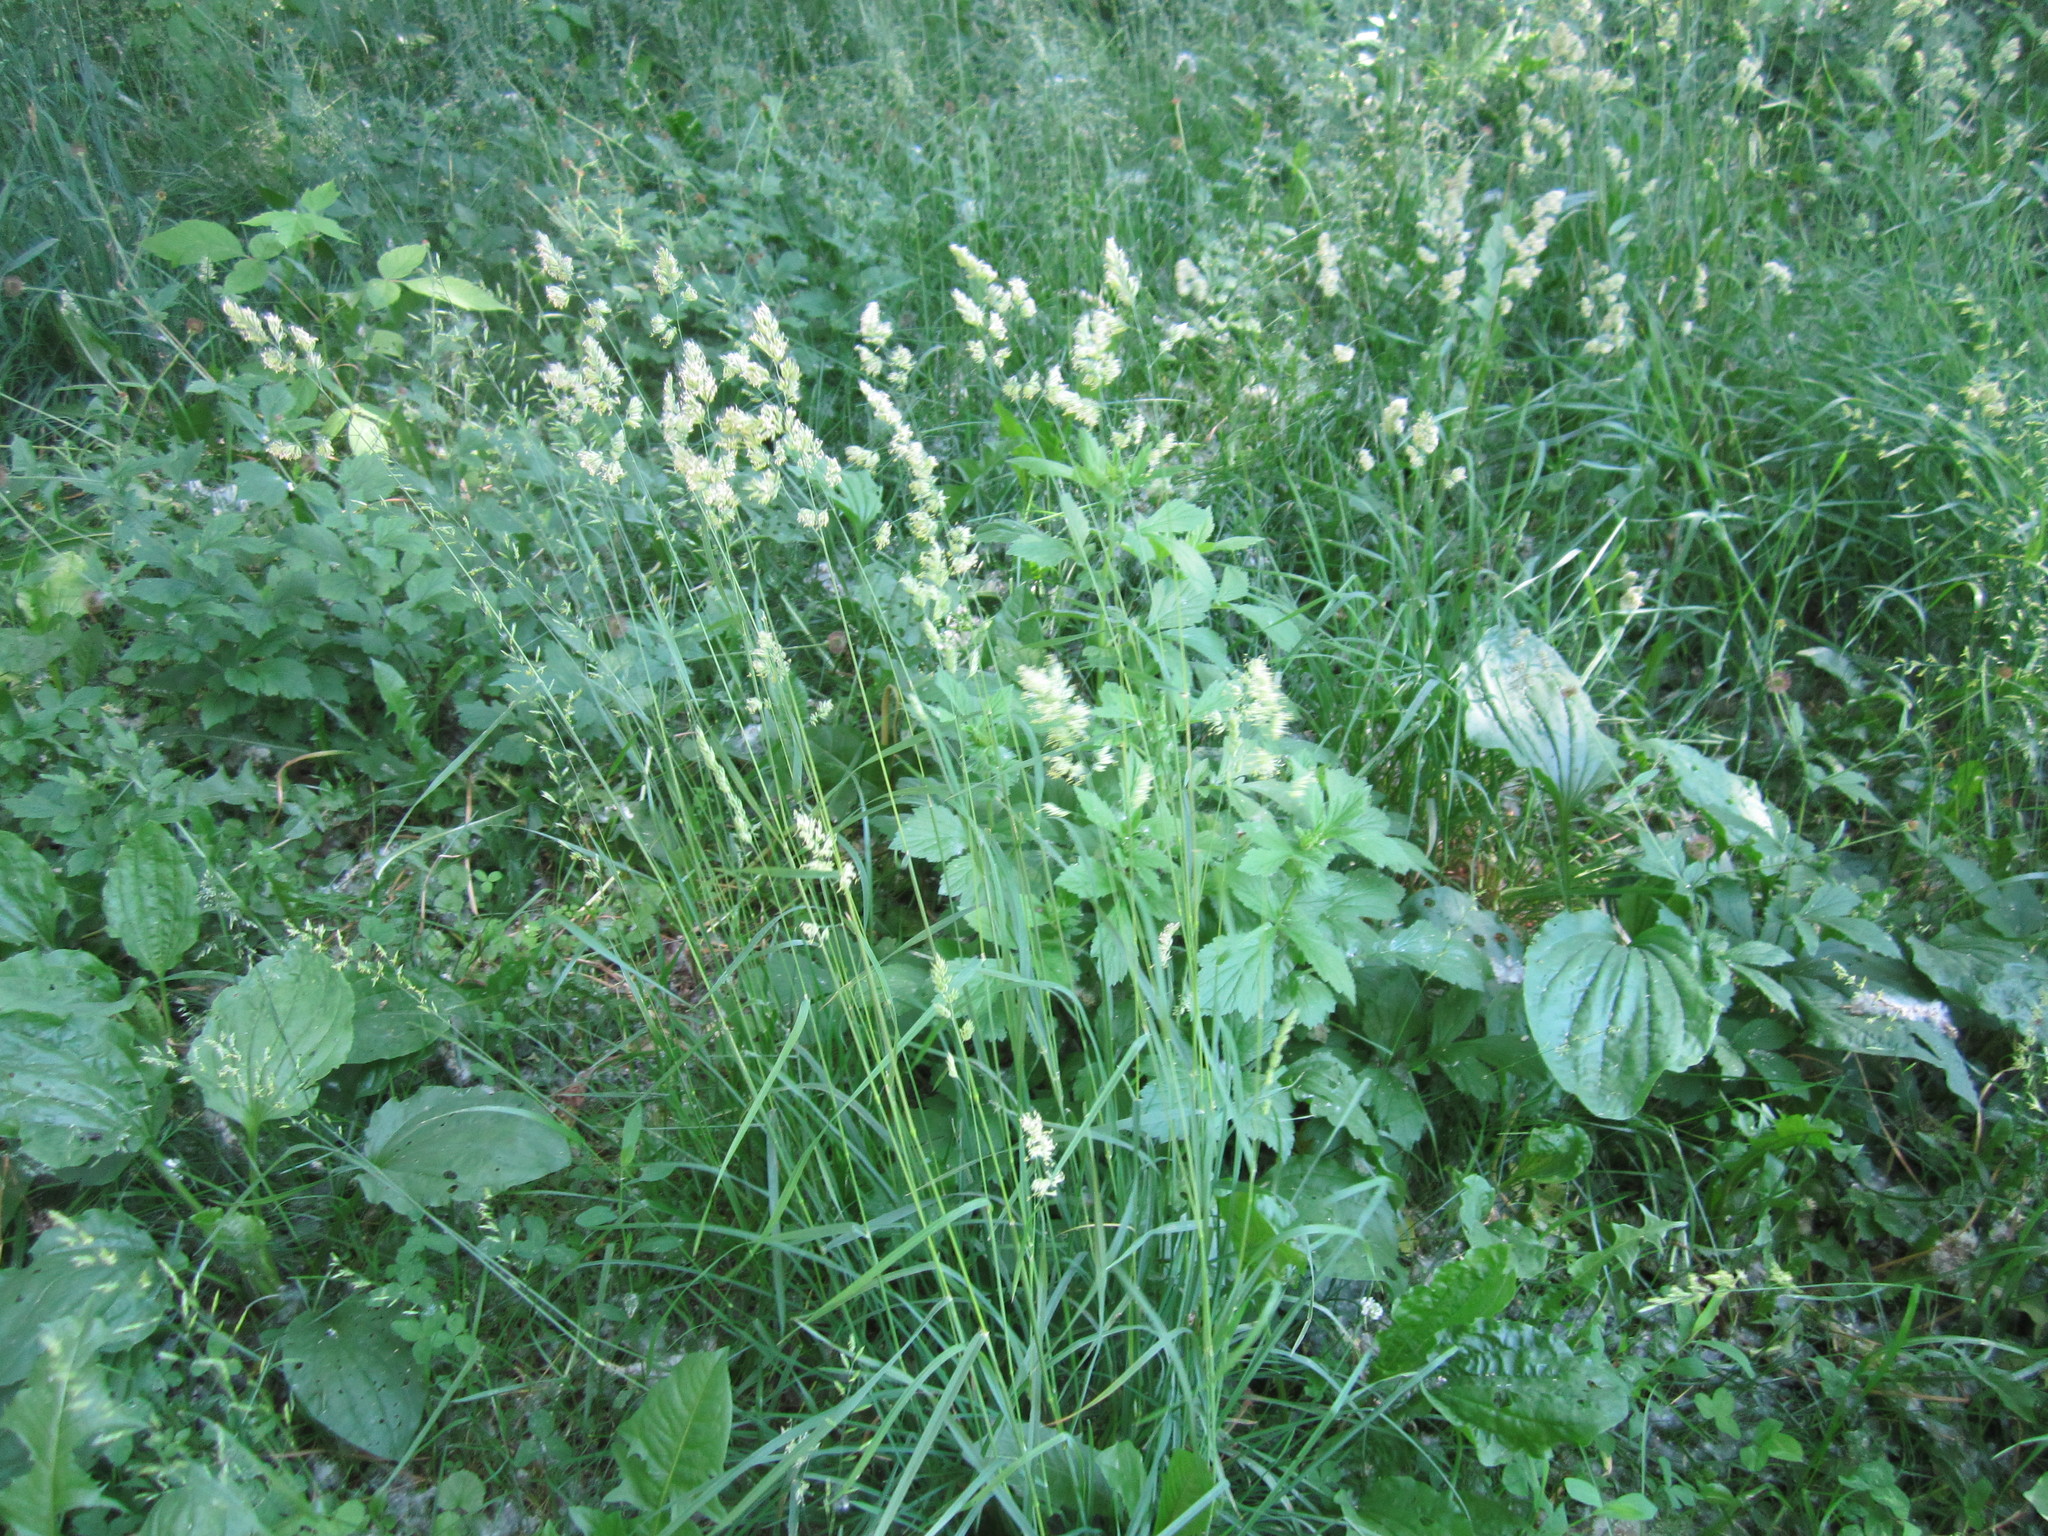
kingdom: Plantae
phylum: Tracheophyta
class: Liliopsida
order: Poales
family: Poaceae
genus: Dactylis
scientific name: Dactylis glomerata
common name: Orchardgrass
